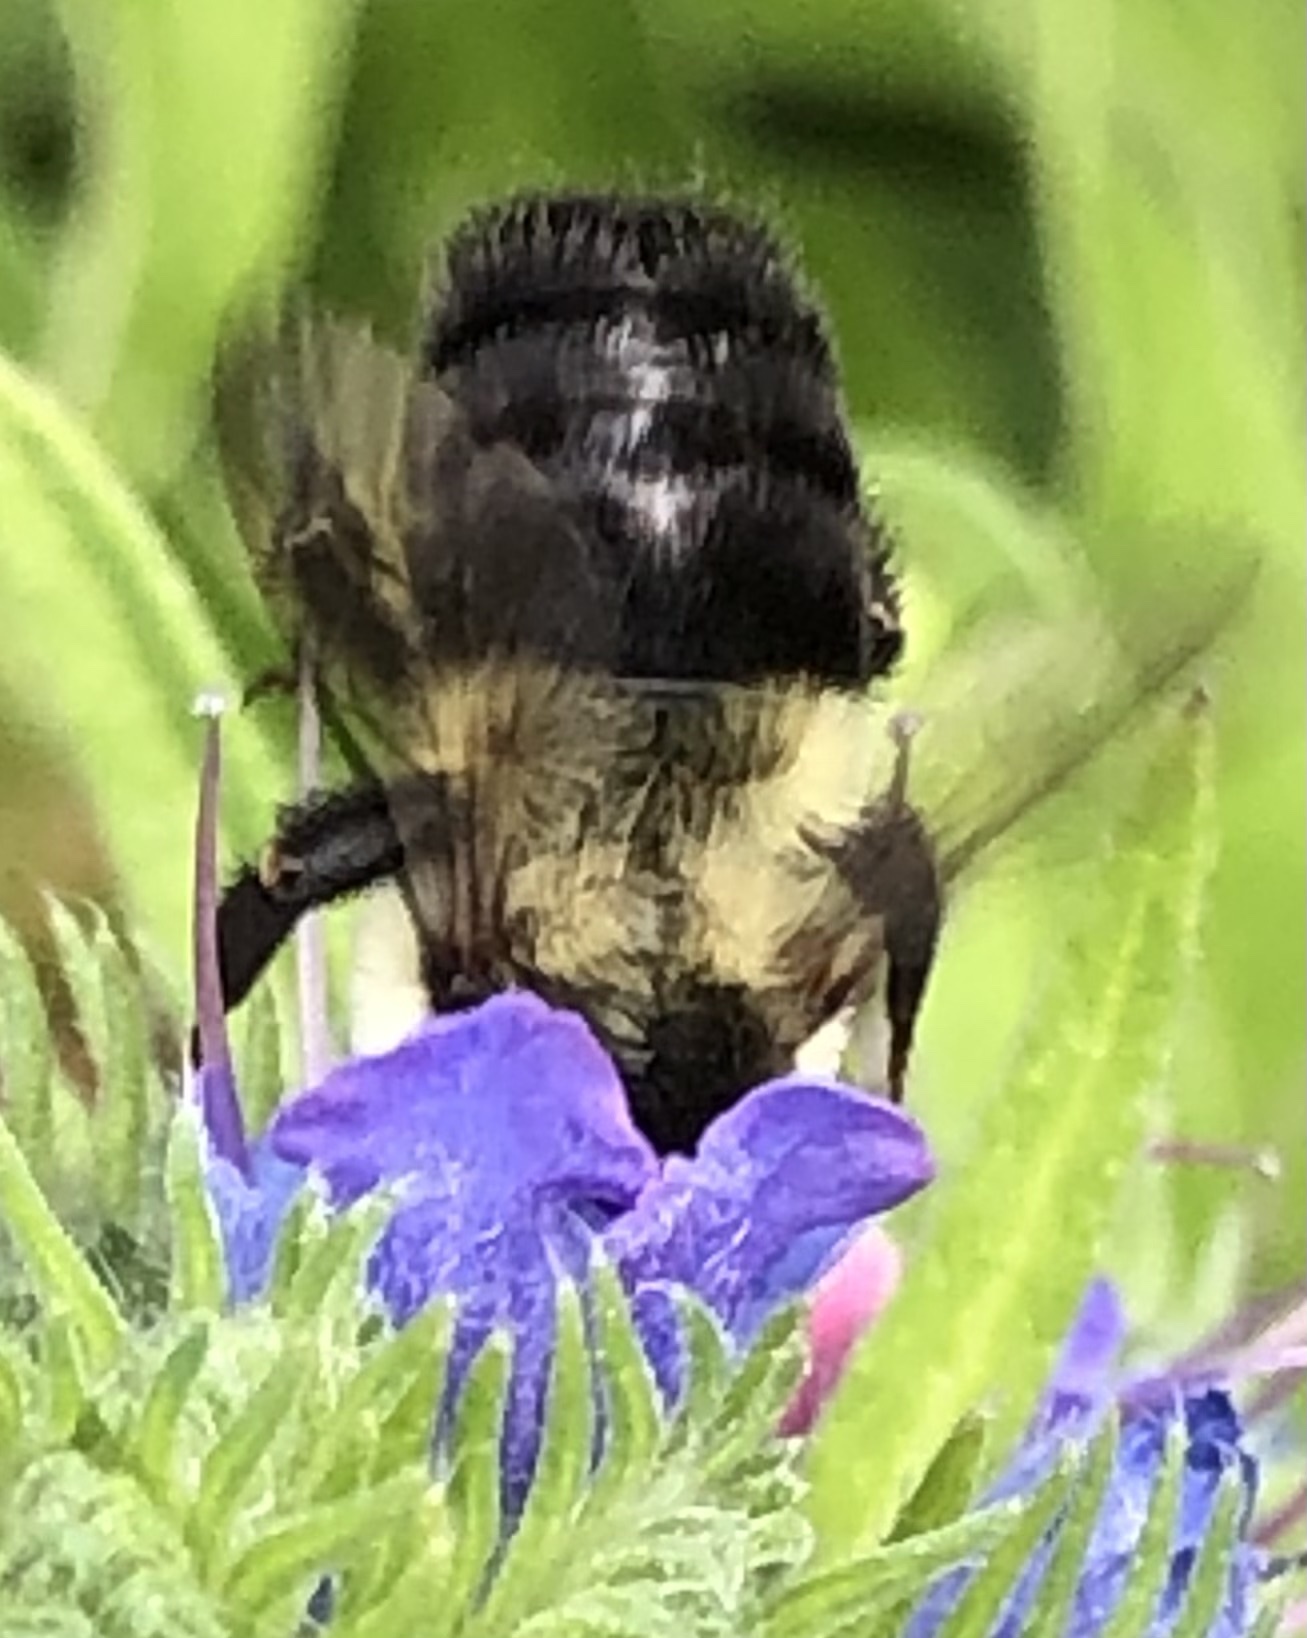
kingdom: Animalia
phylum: Arthropoda
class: Insecta
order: Hymenoptera
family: Apidae
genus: Bombus
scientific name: Bombus impatiens
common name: Common eastern bumble bee
